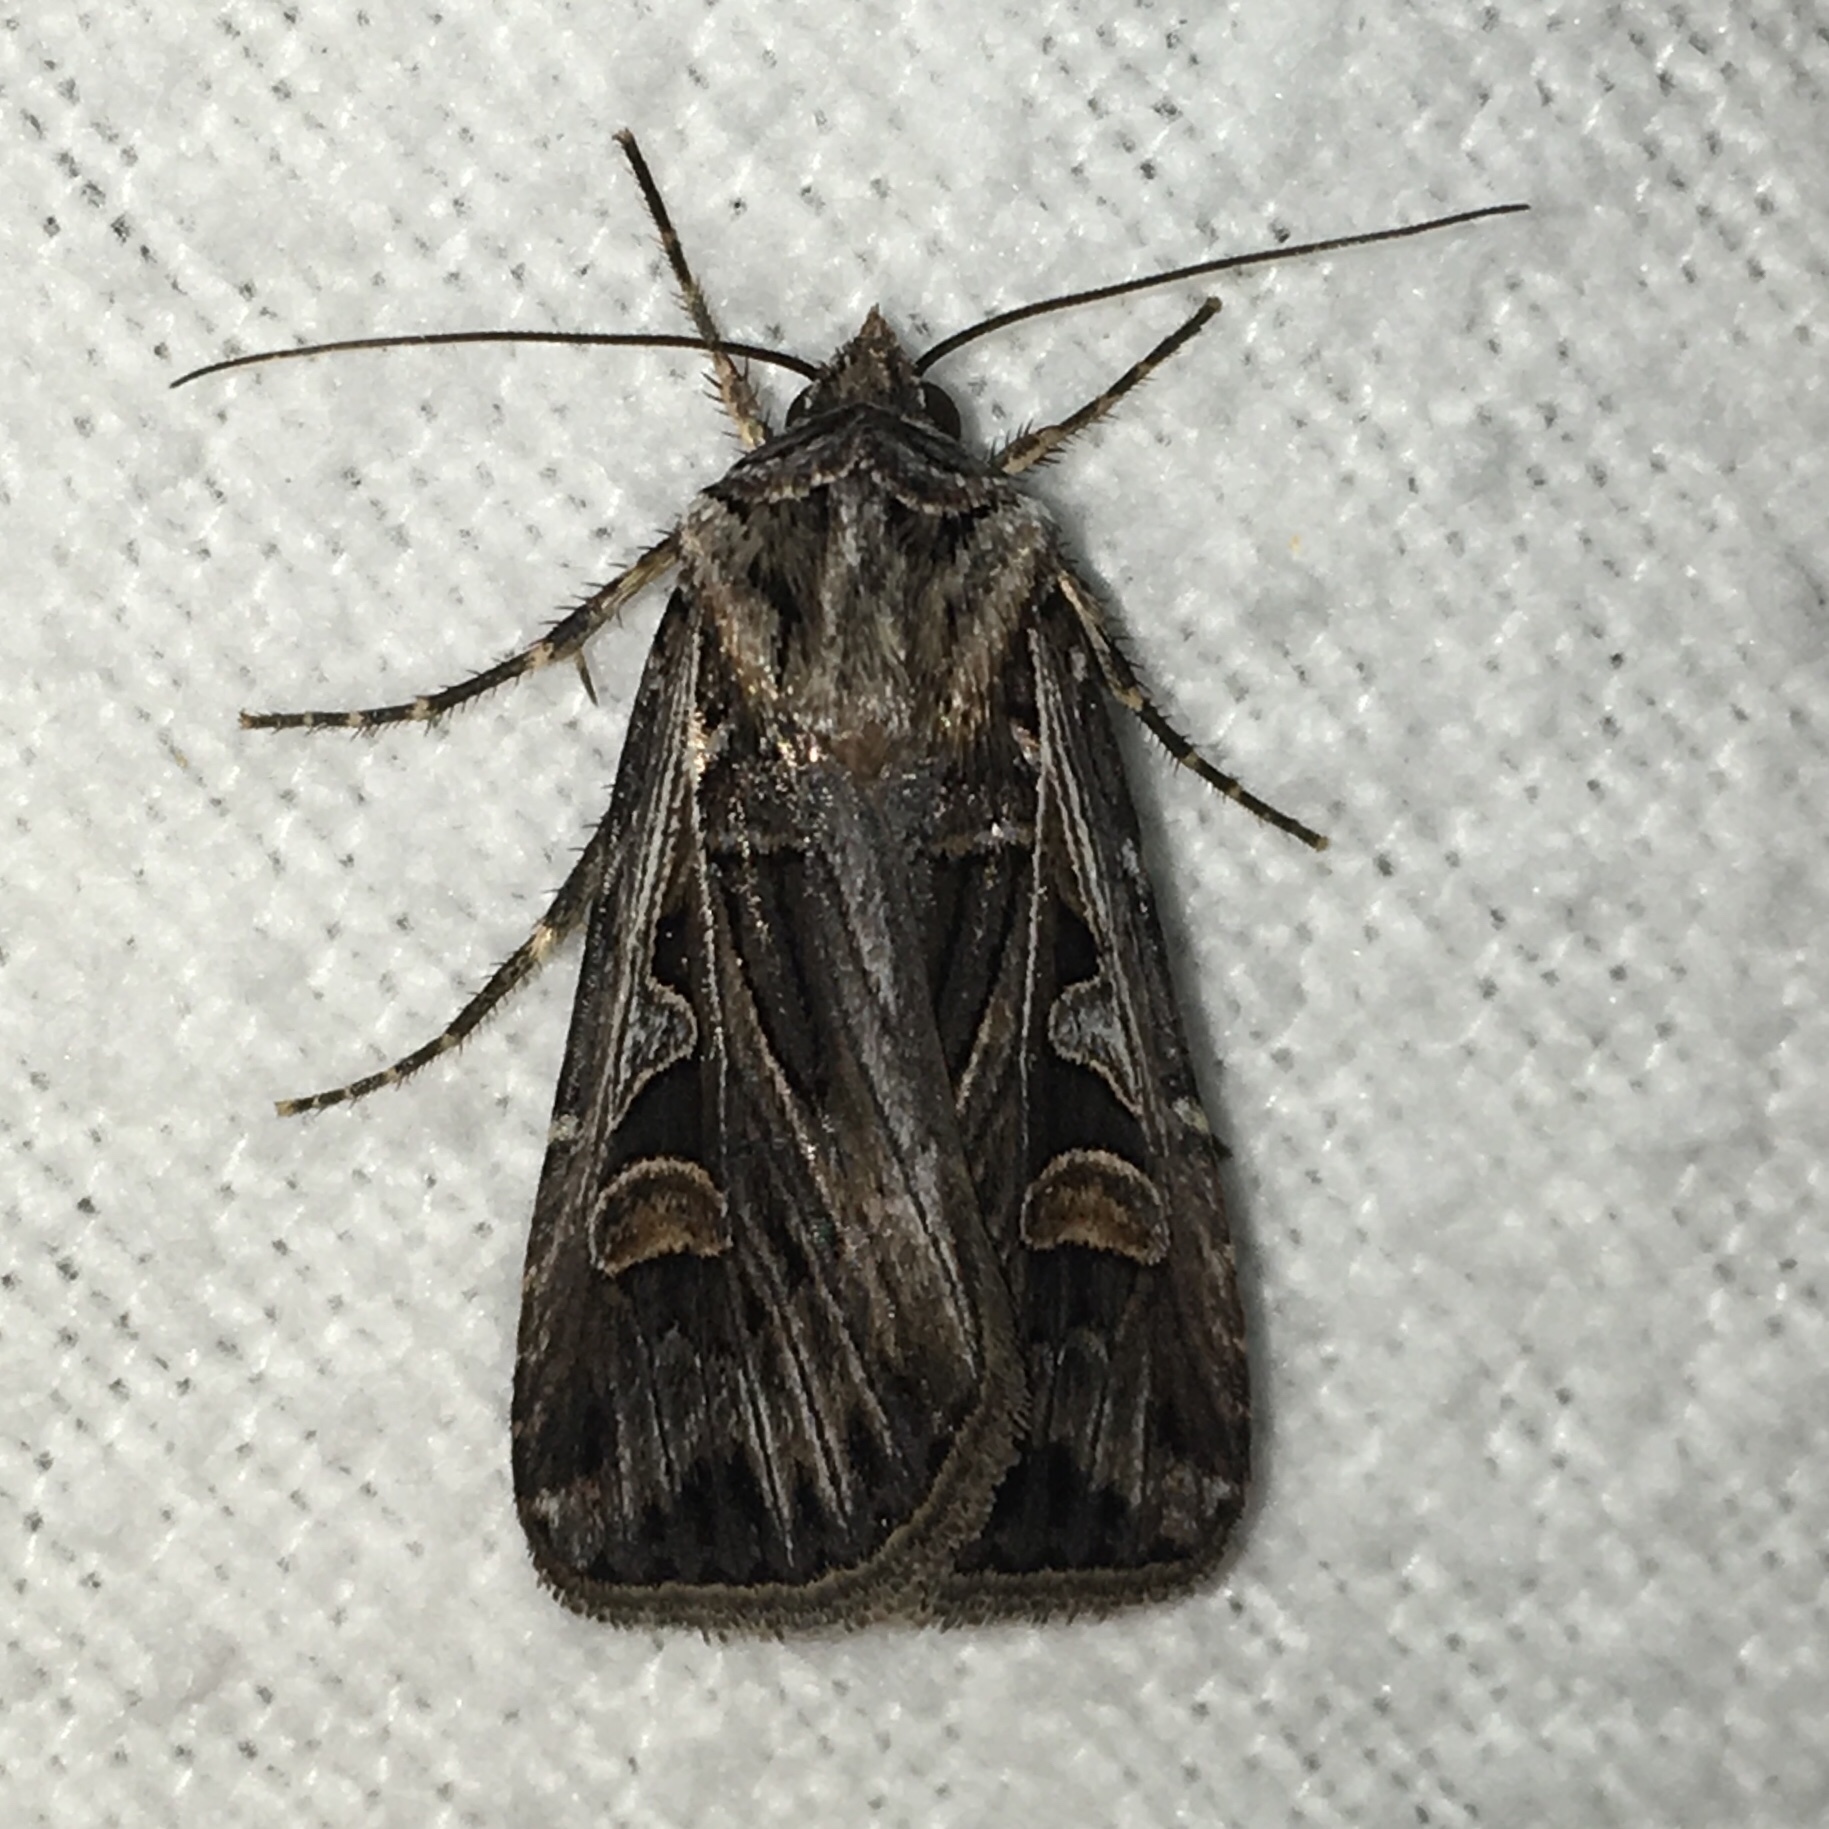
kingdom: Animalia
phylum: Arthropoda
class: Insecta
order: Lepidoptera
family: Noctuidae
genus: Feltia
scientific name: Feltia jaculifera
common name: Dingy cutworm moth
